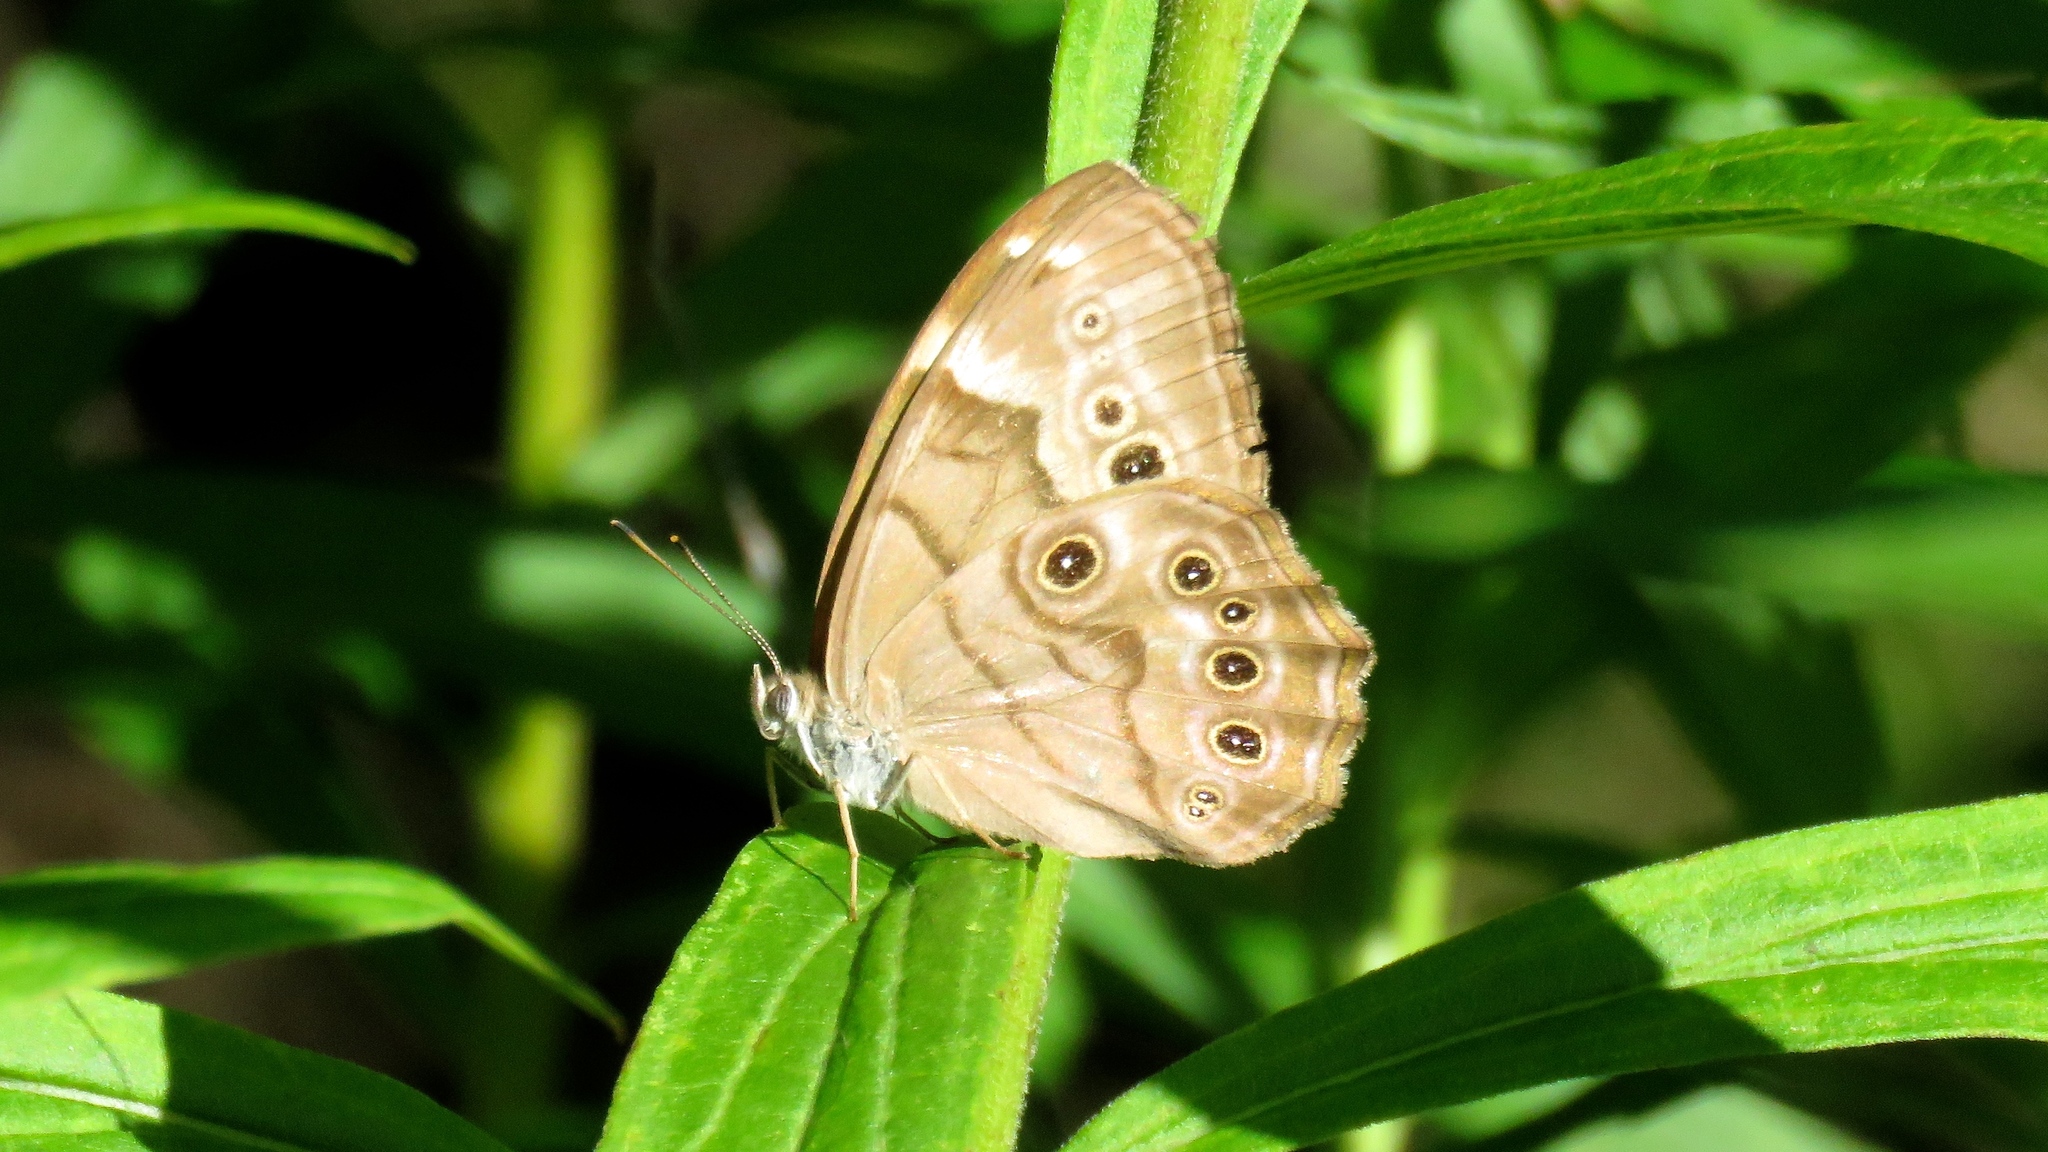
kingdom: Animalia
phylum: Arthropoda
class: Insecta
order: Lepidoptera
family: Nymphalidae
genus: Lethe
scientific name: Lethe anthedon
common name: Northern pearly-eye
